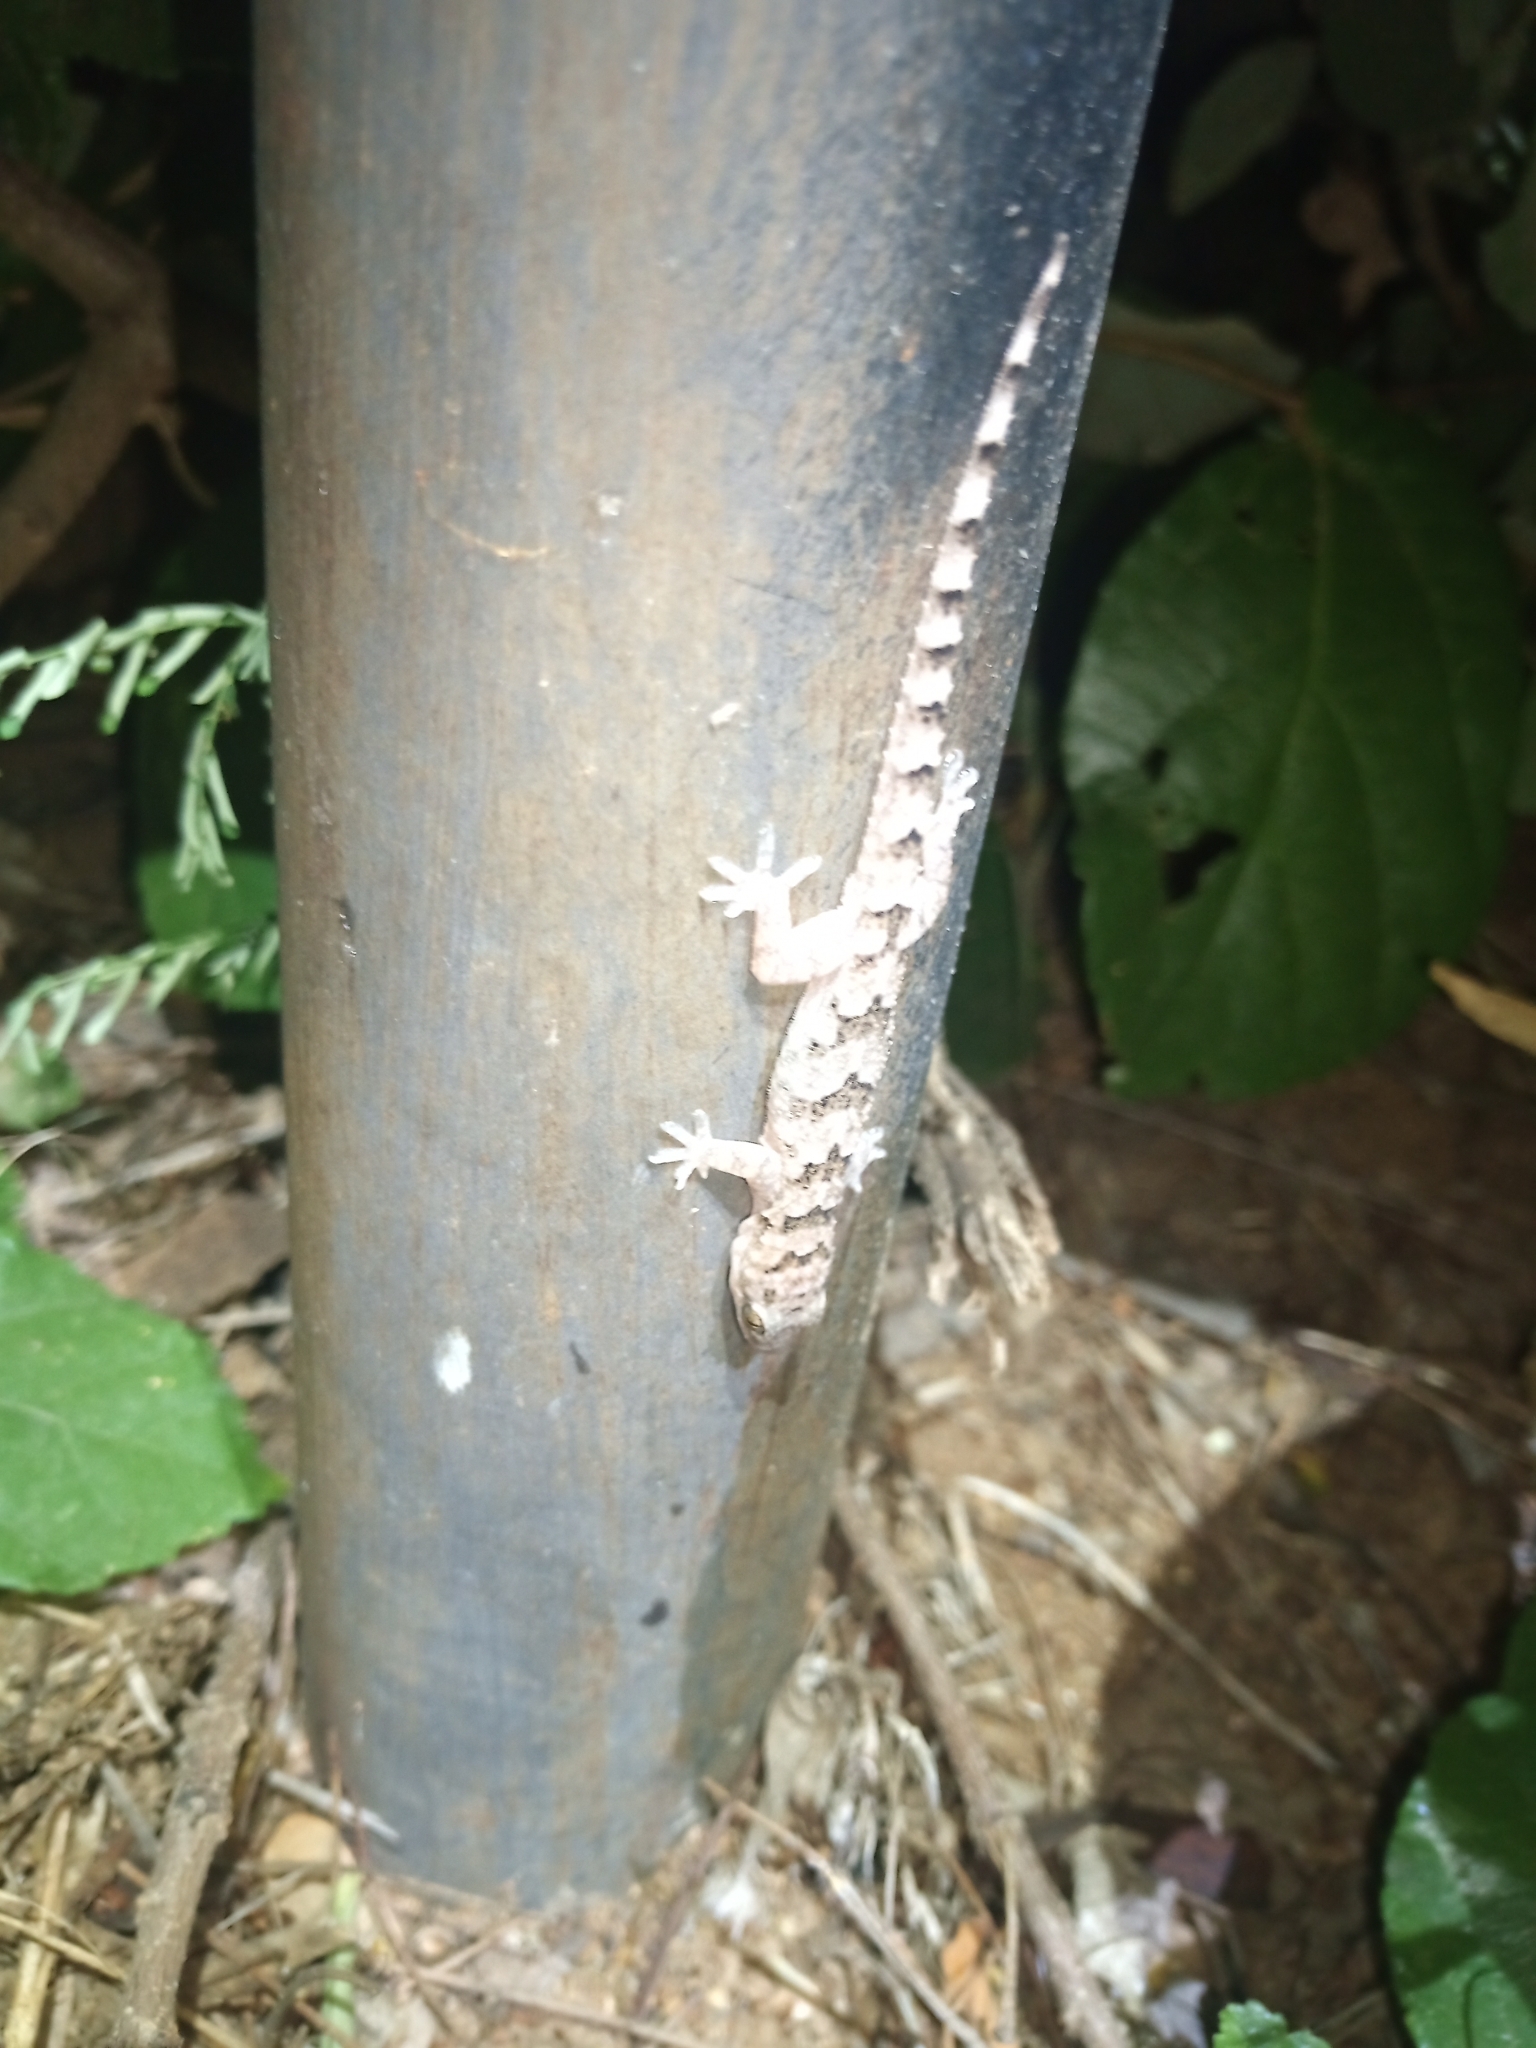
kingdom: Animalia
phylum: Chordata
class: Squamata
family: Gekkonidae
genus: Hemidactylus
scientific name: Hemidactylus mabouia
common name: House gecko
